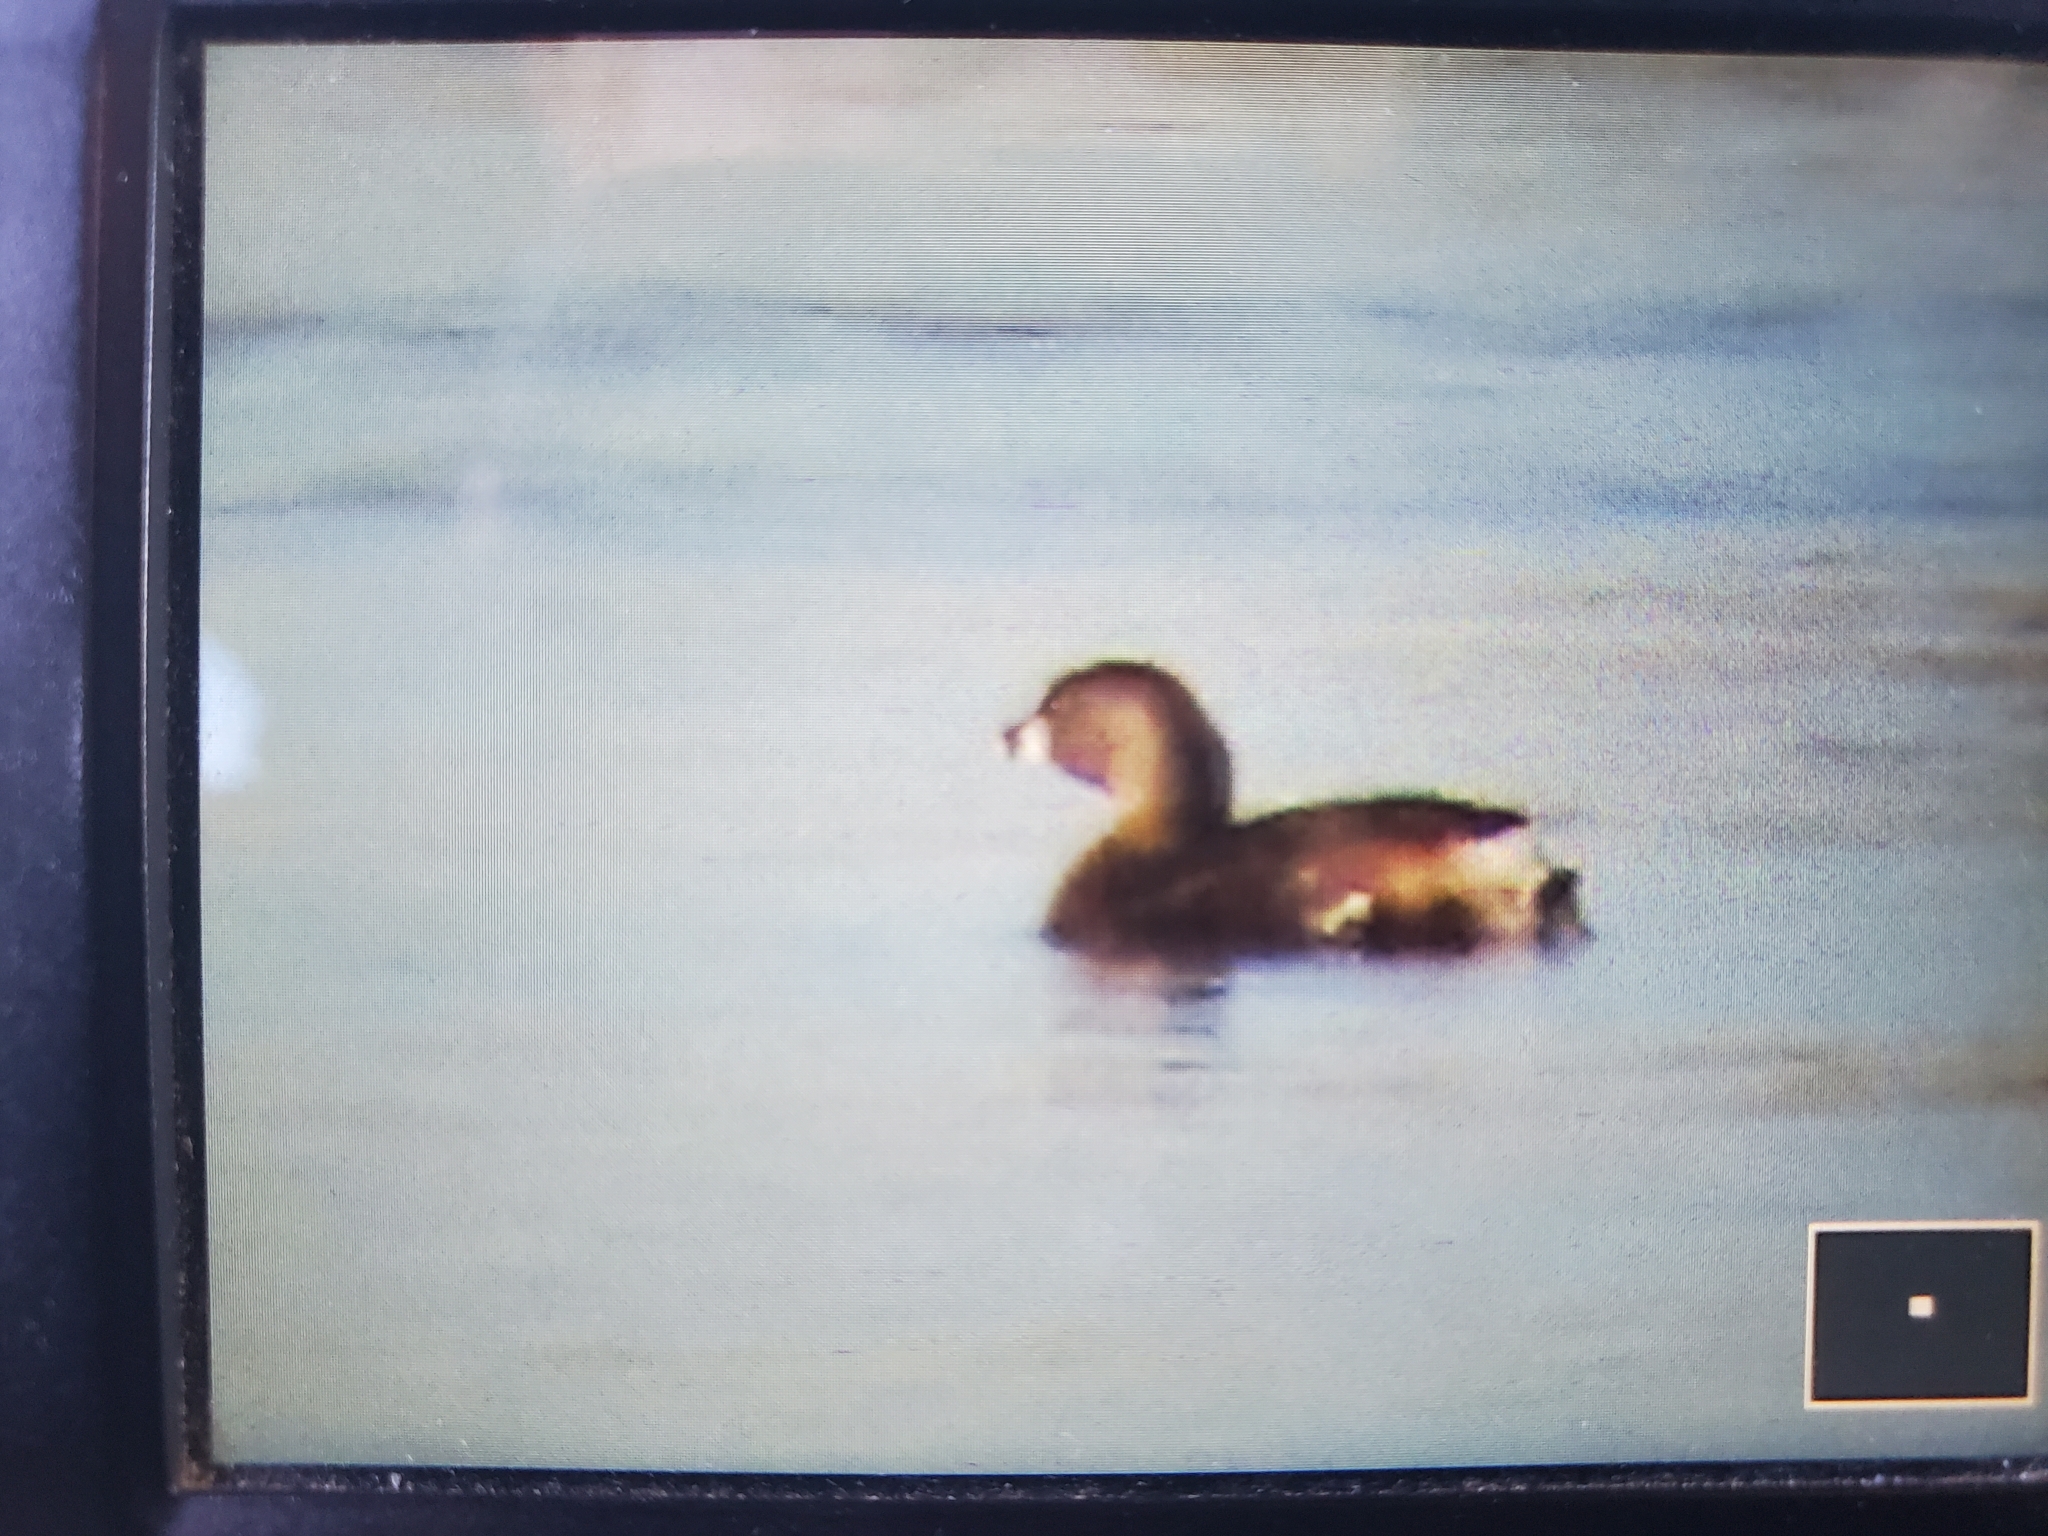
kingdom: Animalia
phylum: Chordata
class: Aves
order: Podicipediformes
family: Podicipedidae
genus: Podilymbus
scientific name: Podilymbus podiceps
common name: Pied-billed grebe
